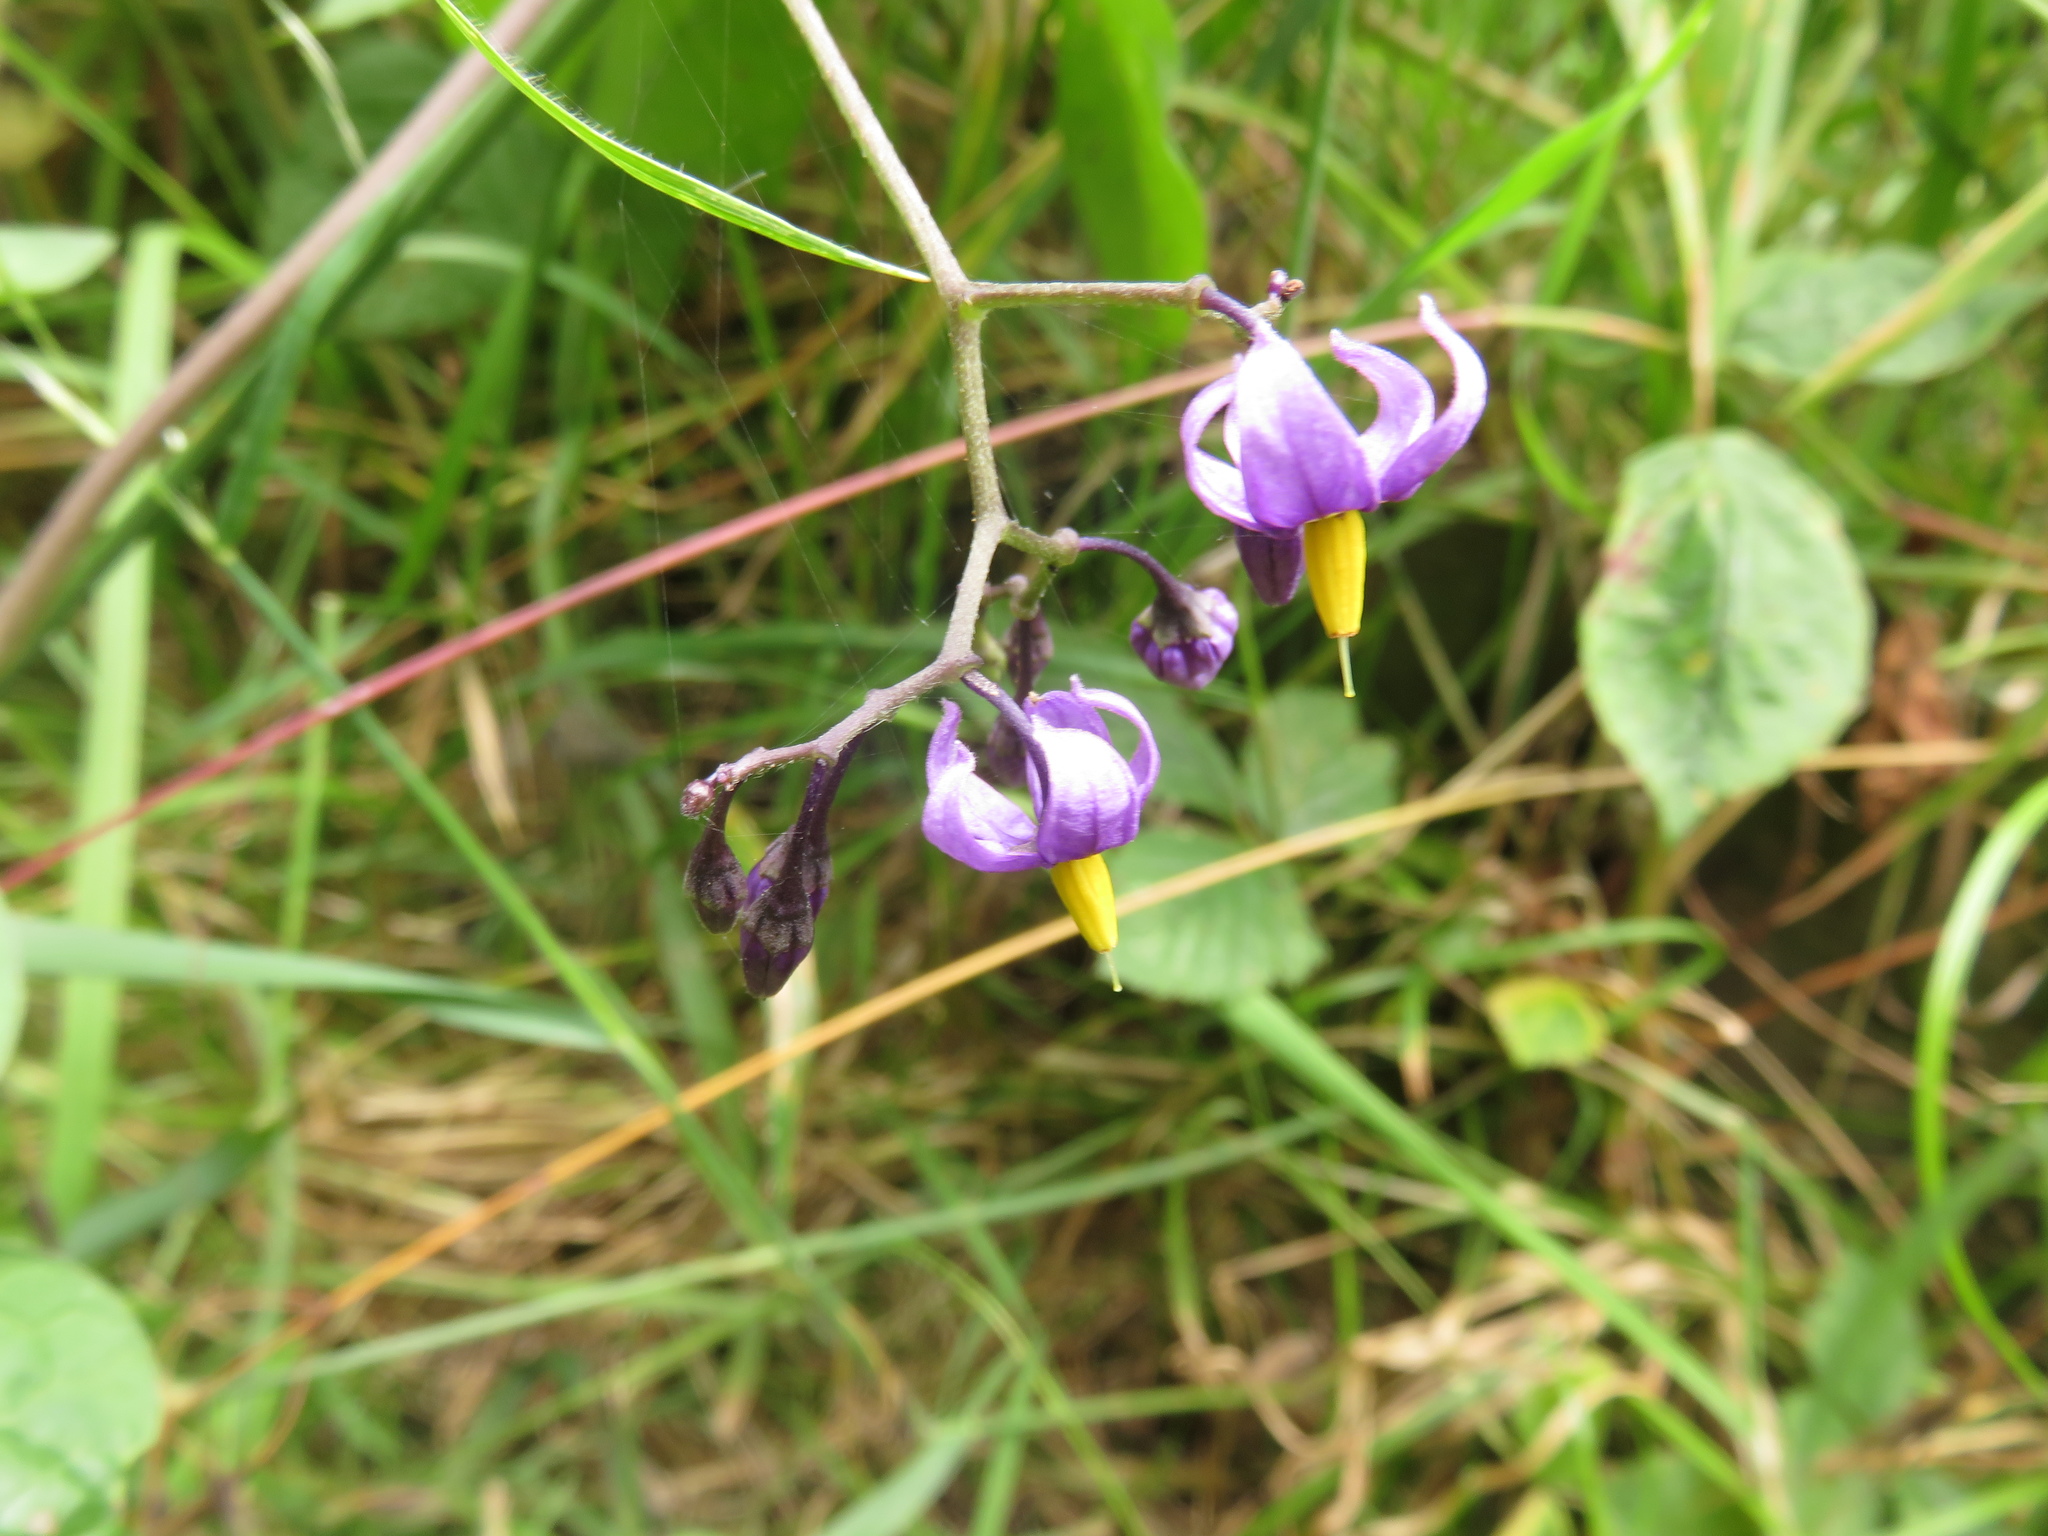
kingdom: Plantae
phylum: Tracheophyta
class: Magnoliopsida
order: Solanales
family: Solanaceae
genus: Solanum
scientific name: Solanum dulcamara
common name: Climbing nightshade
